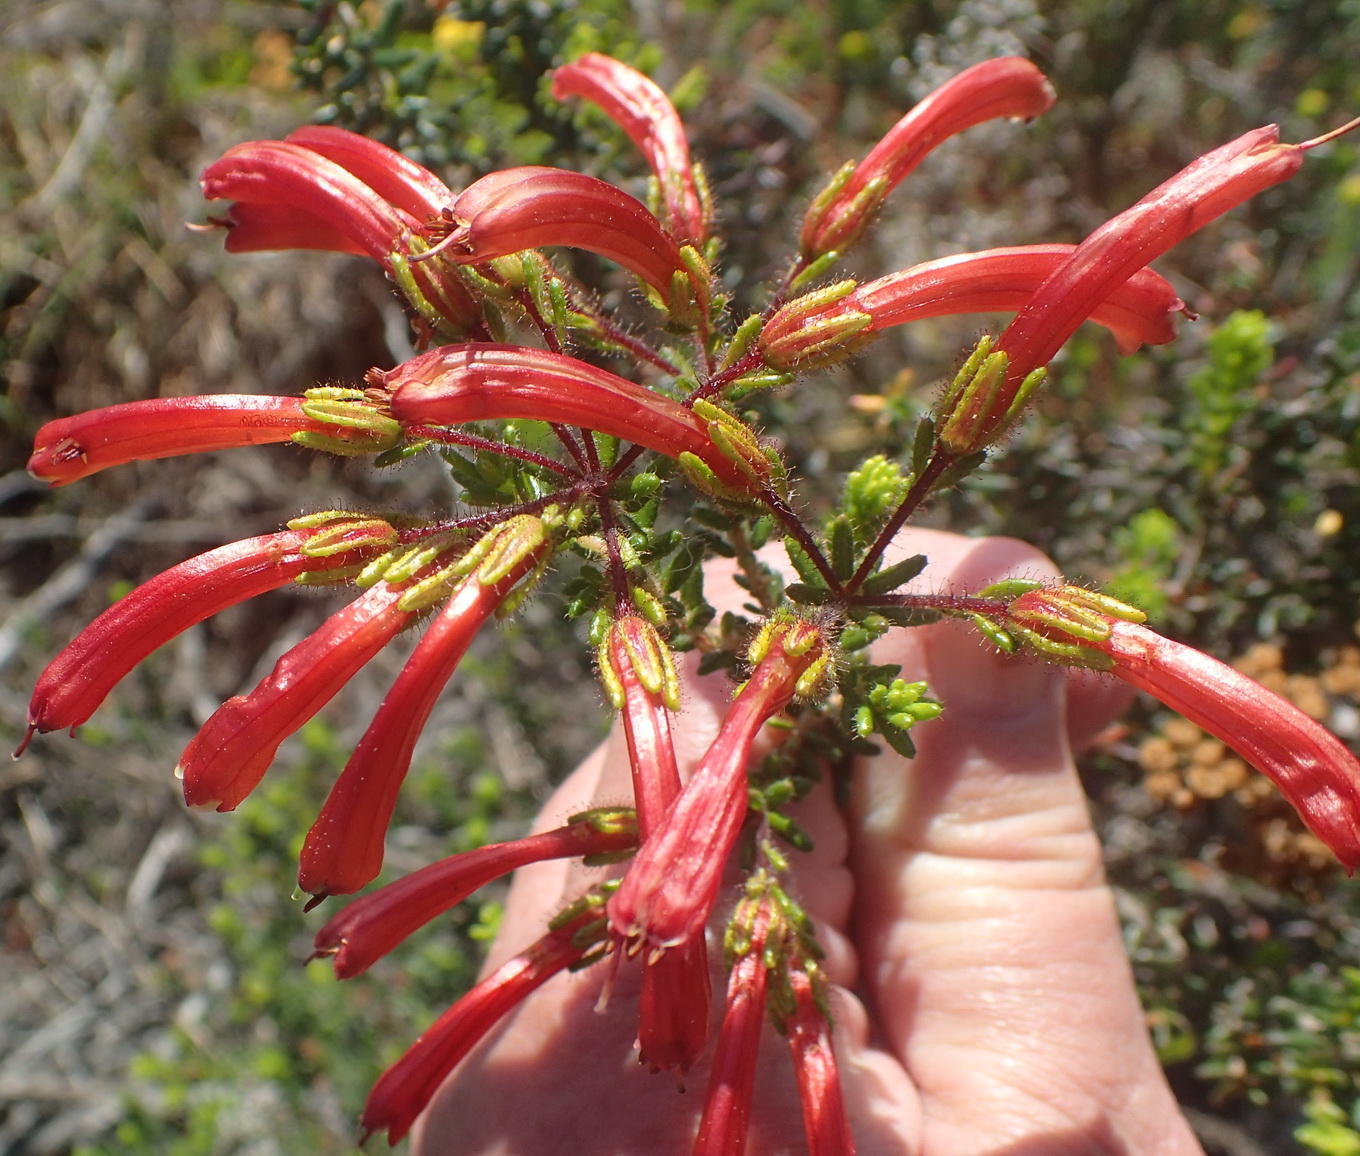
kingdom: Plantae
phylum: Tracheophyta
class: Magnoliopsida
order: Ericales
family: Ericaceae
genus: Erica
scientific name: Erica glandulosa
